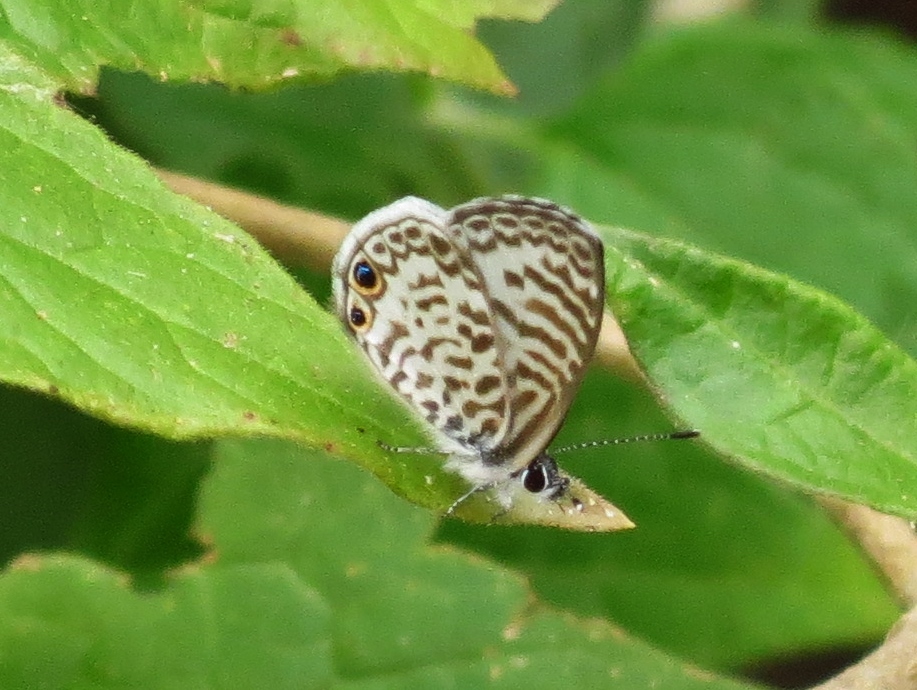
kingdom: Animalia
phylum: Arthropoda
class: Insecta
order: Lepidoptera
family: Lycaenidae
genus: Leptotes
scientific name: Leptotes cassius
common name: Cassius blue
